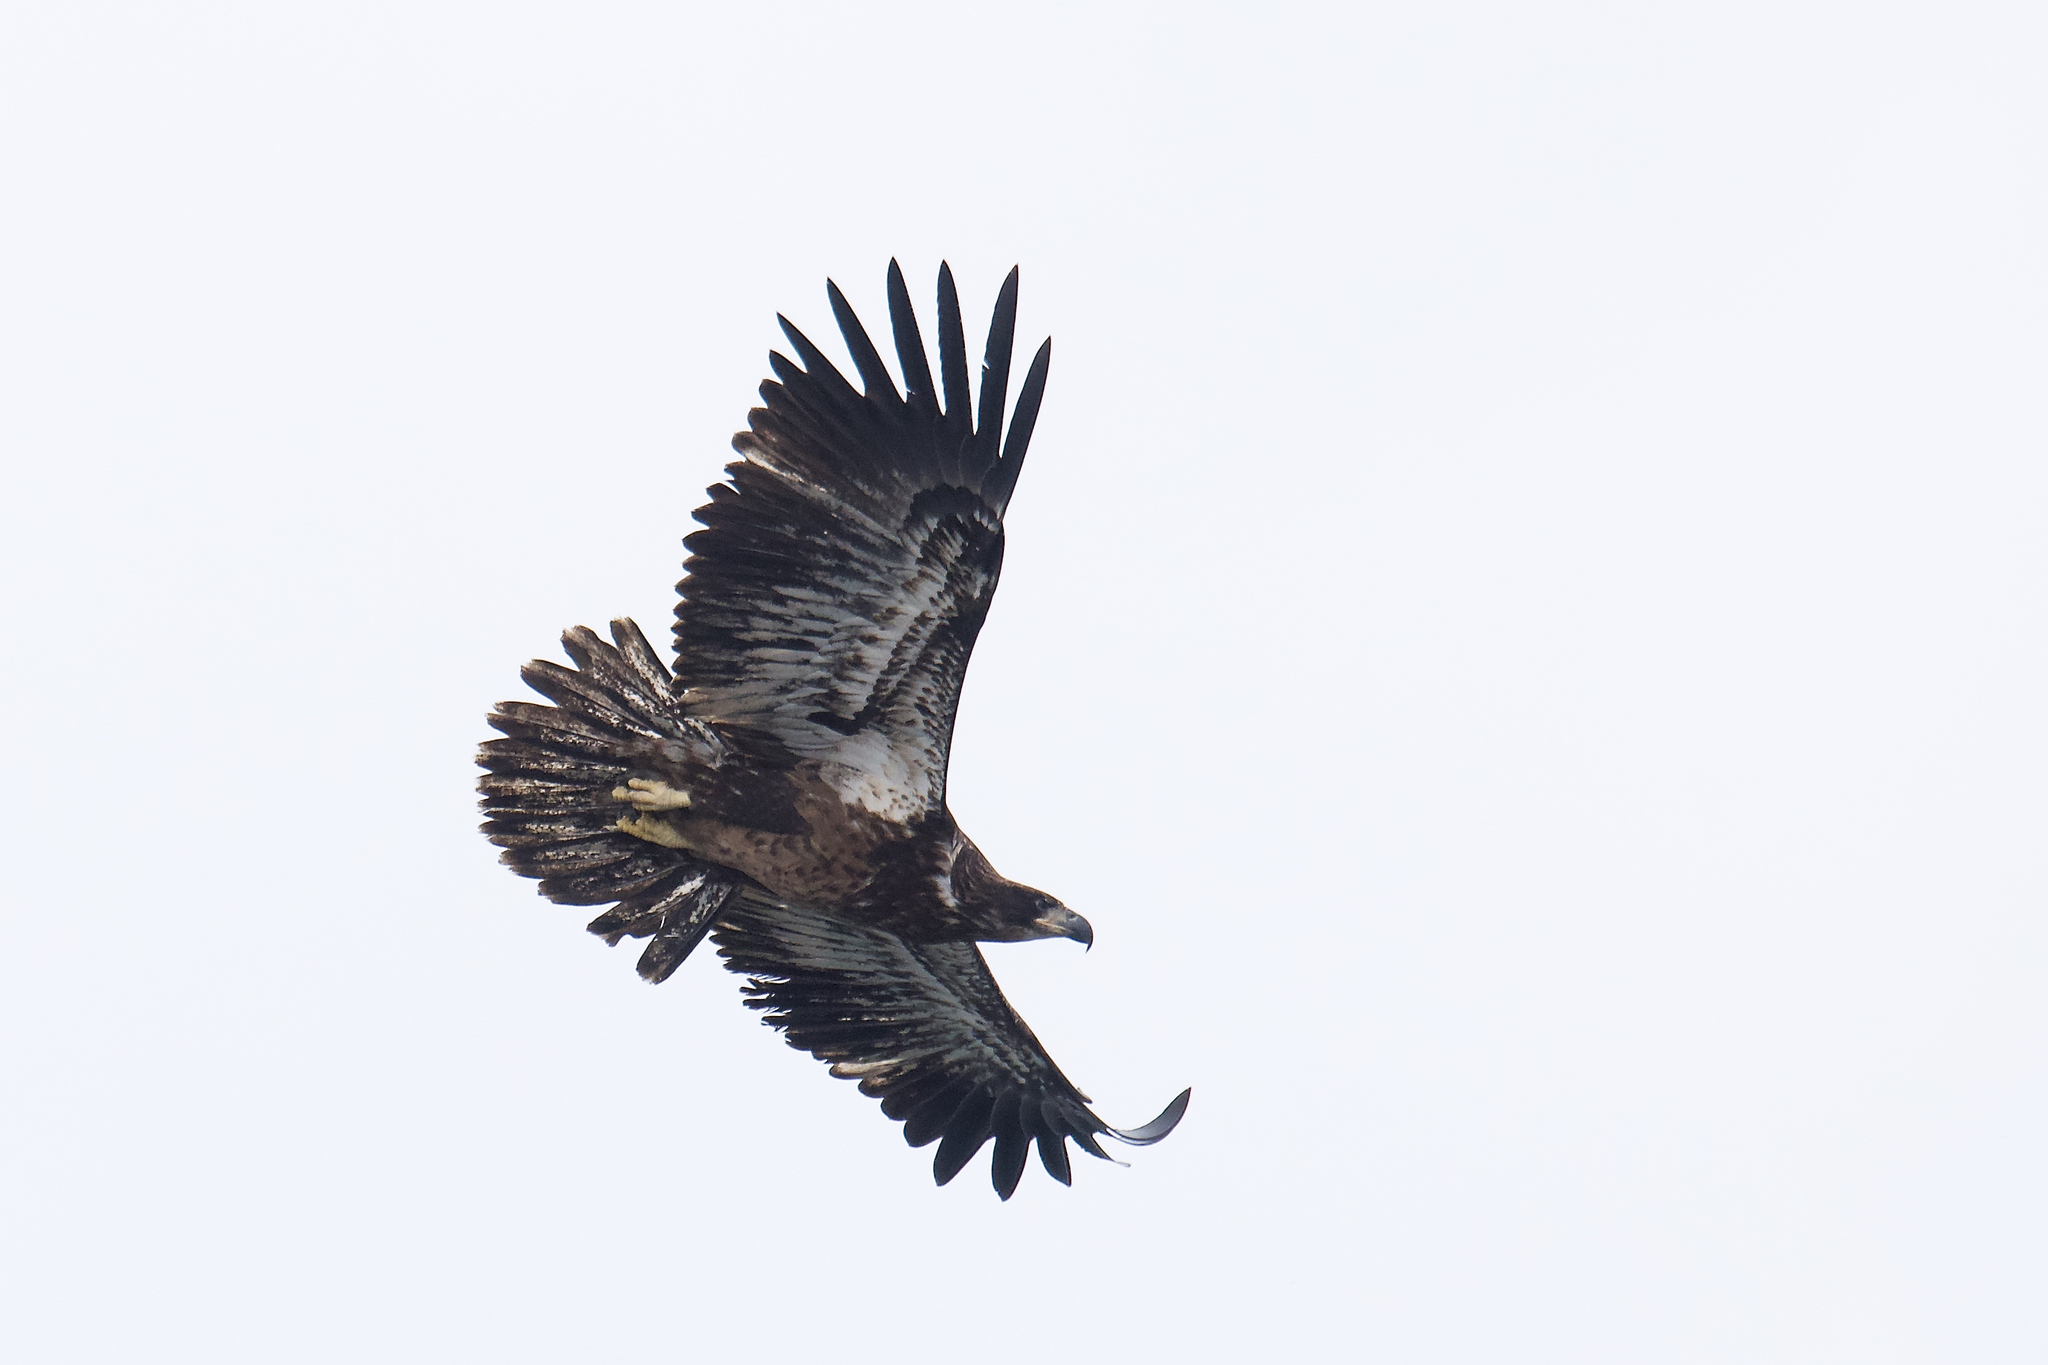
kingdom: Animalia
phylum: Chordata
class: Aves
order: Accipitriformes
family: Accipitridae
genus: Haliaeetus
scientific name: Haliaeetus leucocephalus
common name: Bald eagle
